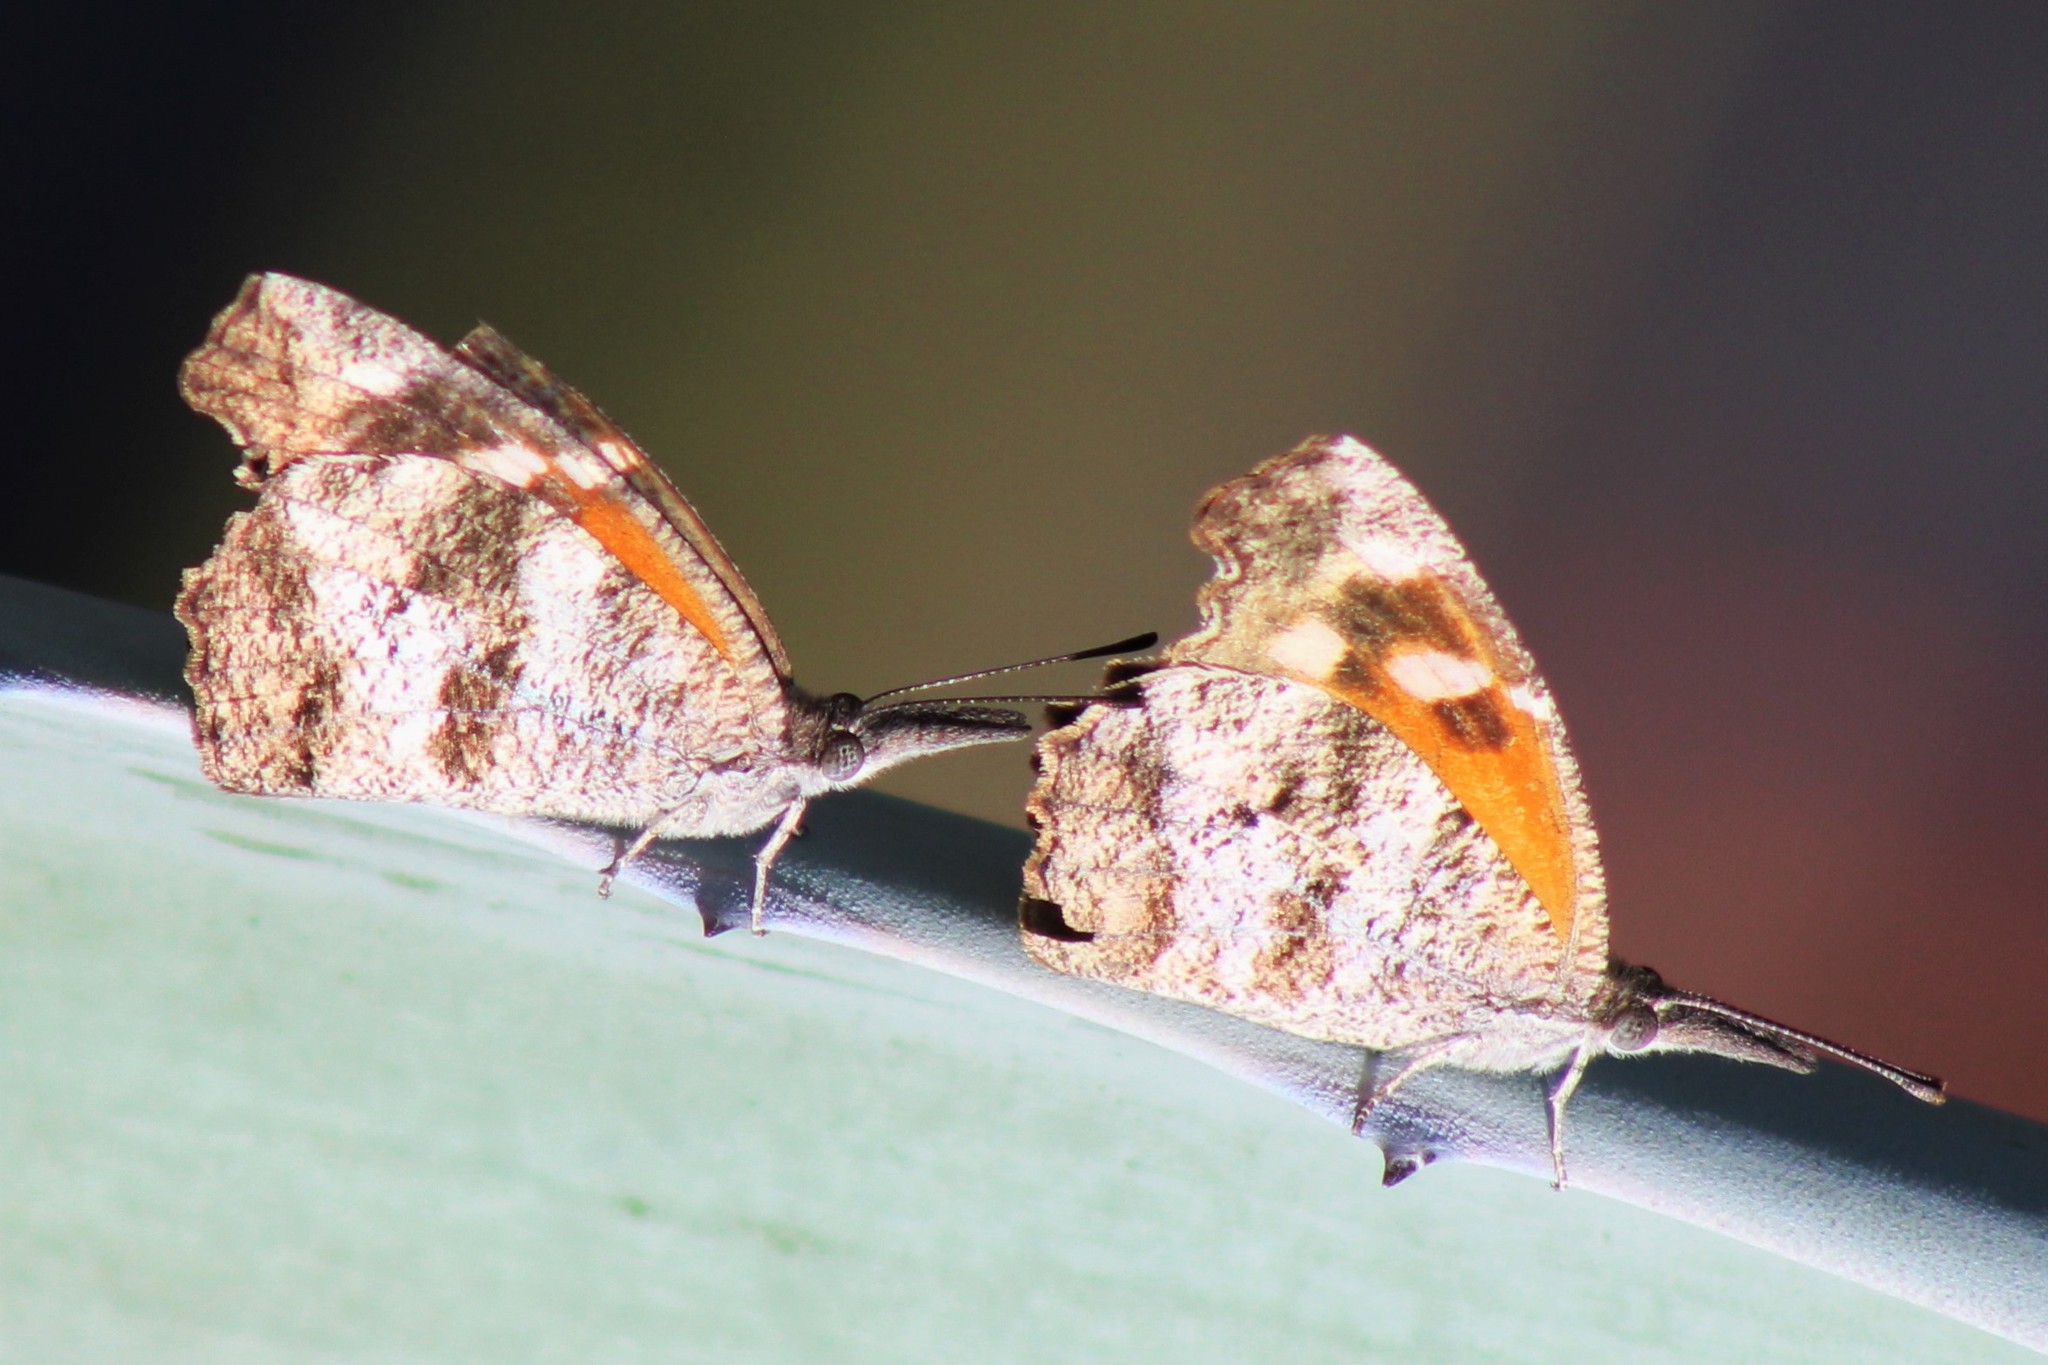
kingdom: Animalia
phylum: Arthropoda
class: Insecta
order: Lepidoptera
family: Nymphalidae
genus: Libytheana
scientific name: Libytheana carinenta
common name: American snout
